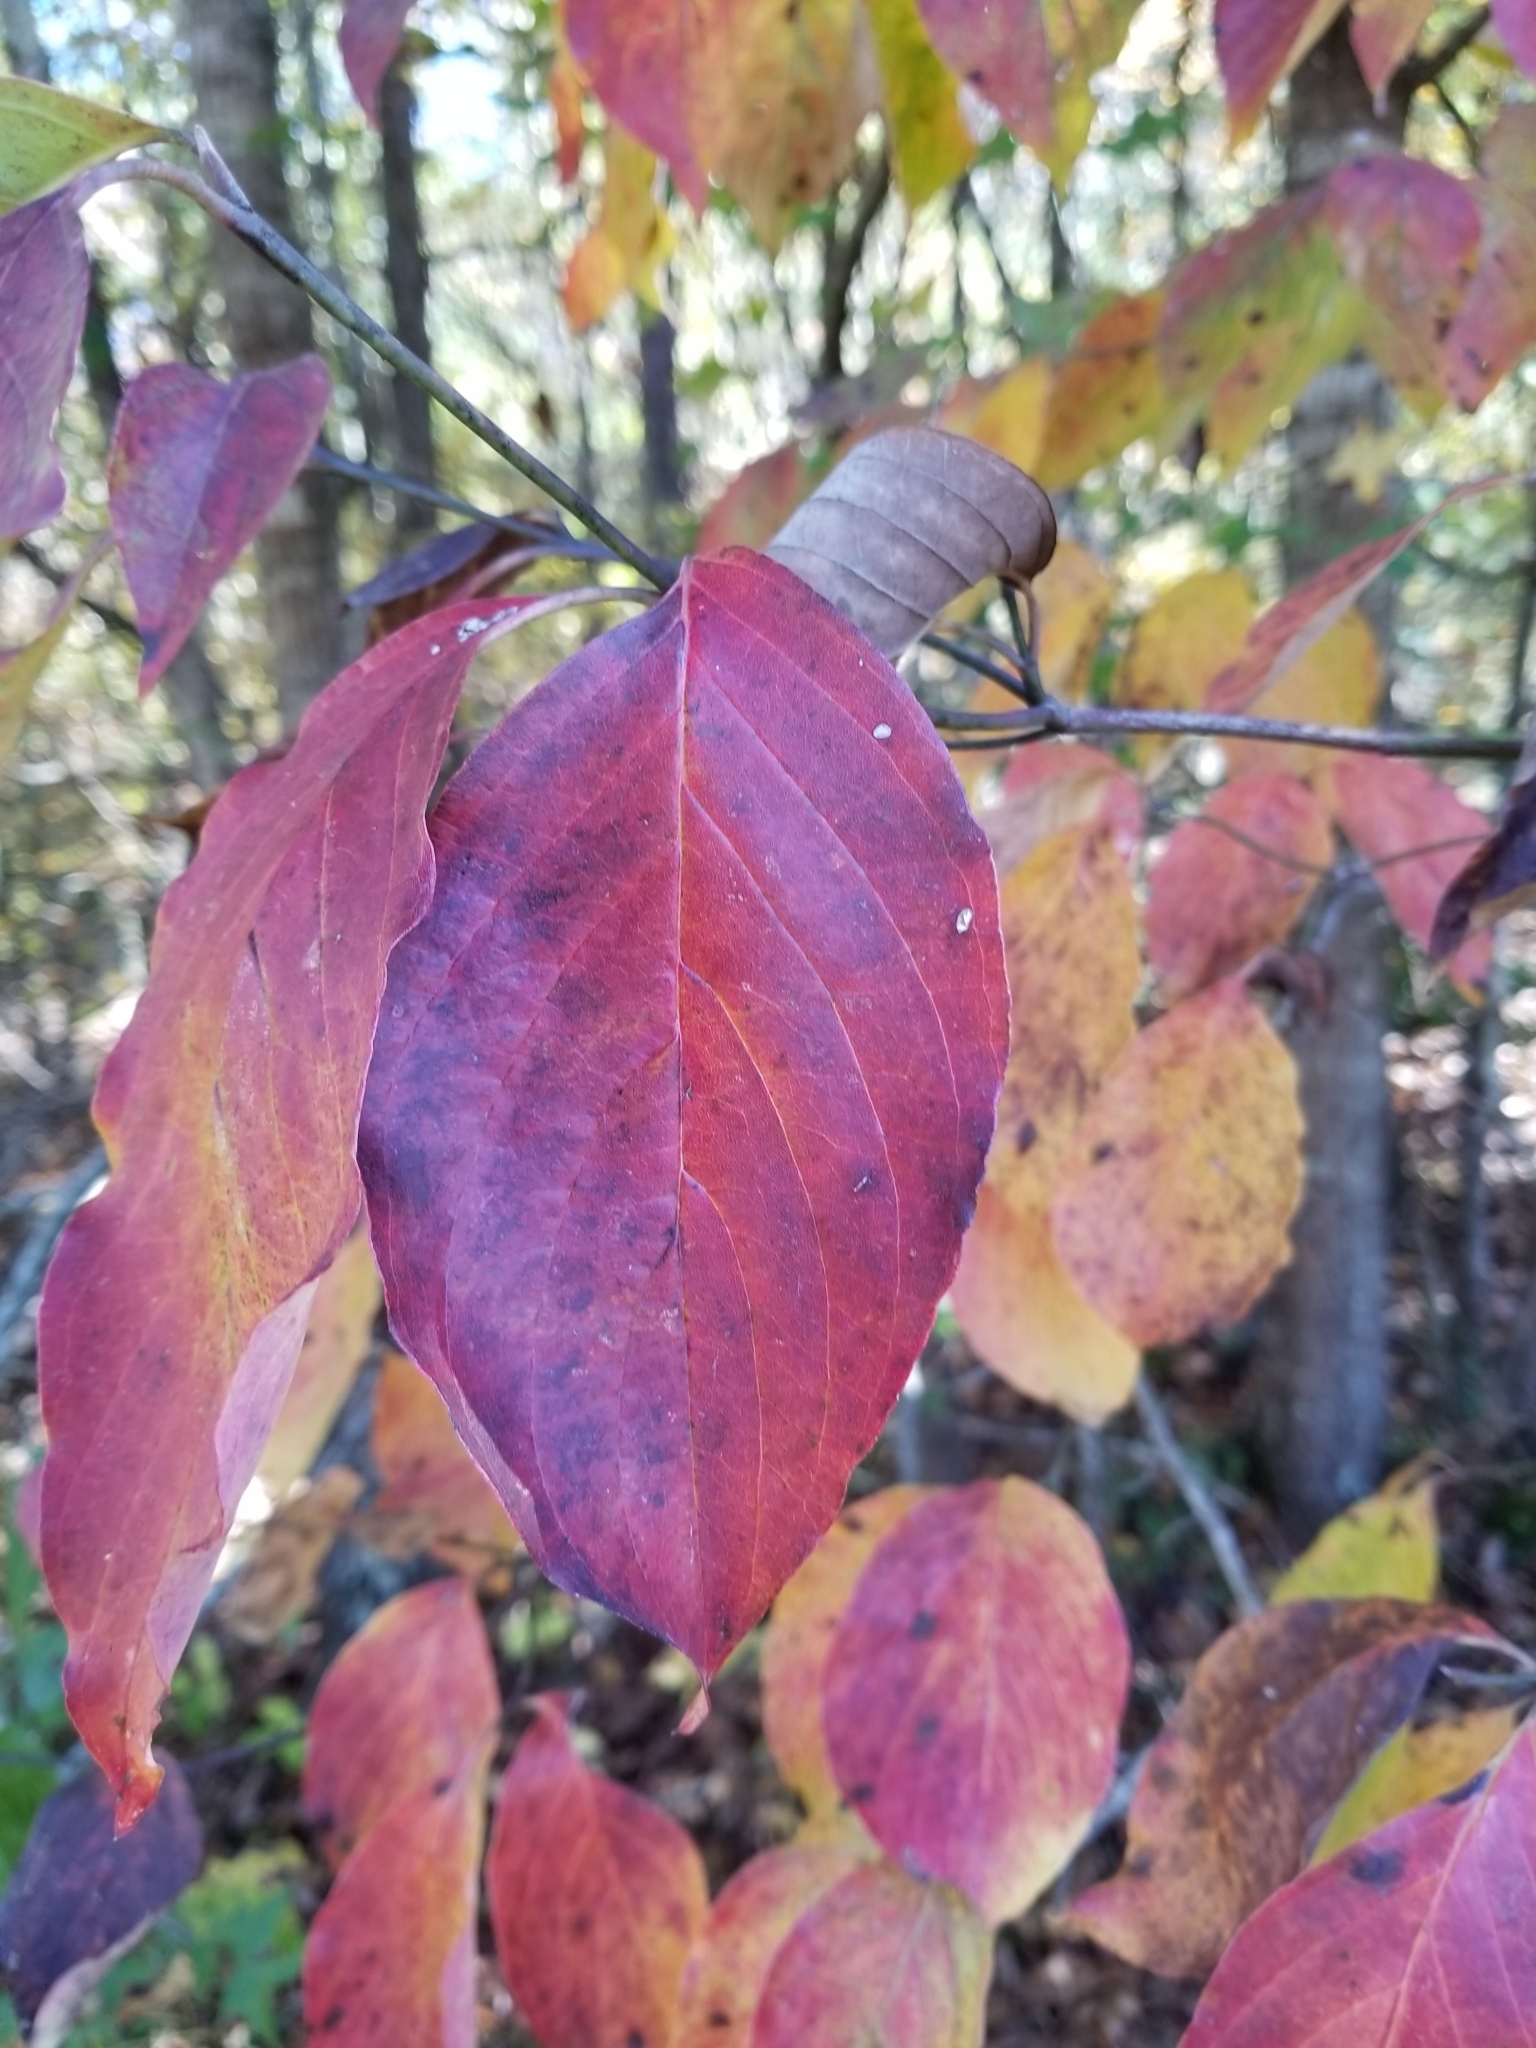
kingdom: Plantae
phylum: Tracheophyta
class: Magnoliopsida
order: Cornales
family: Cornaceae
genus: Cornus
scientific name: Cornus florida
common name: Flowering dogwood
